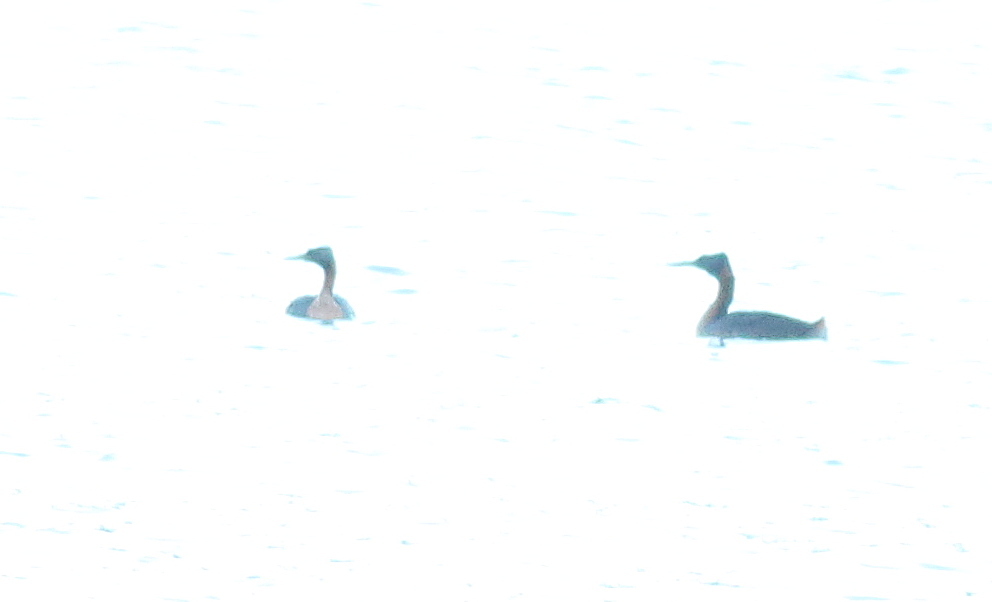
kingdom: Animalia
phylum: Chordata
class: Aves
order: Podicipediformes
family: Podicipedidae
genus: Podiceps
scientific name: Podiceps major
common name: Great grebe
